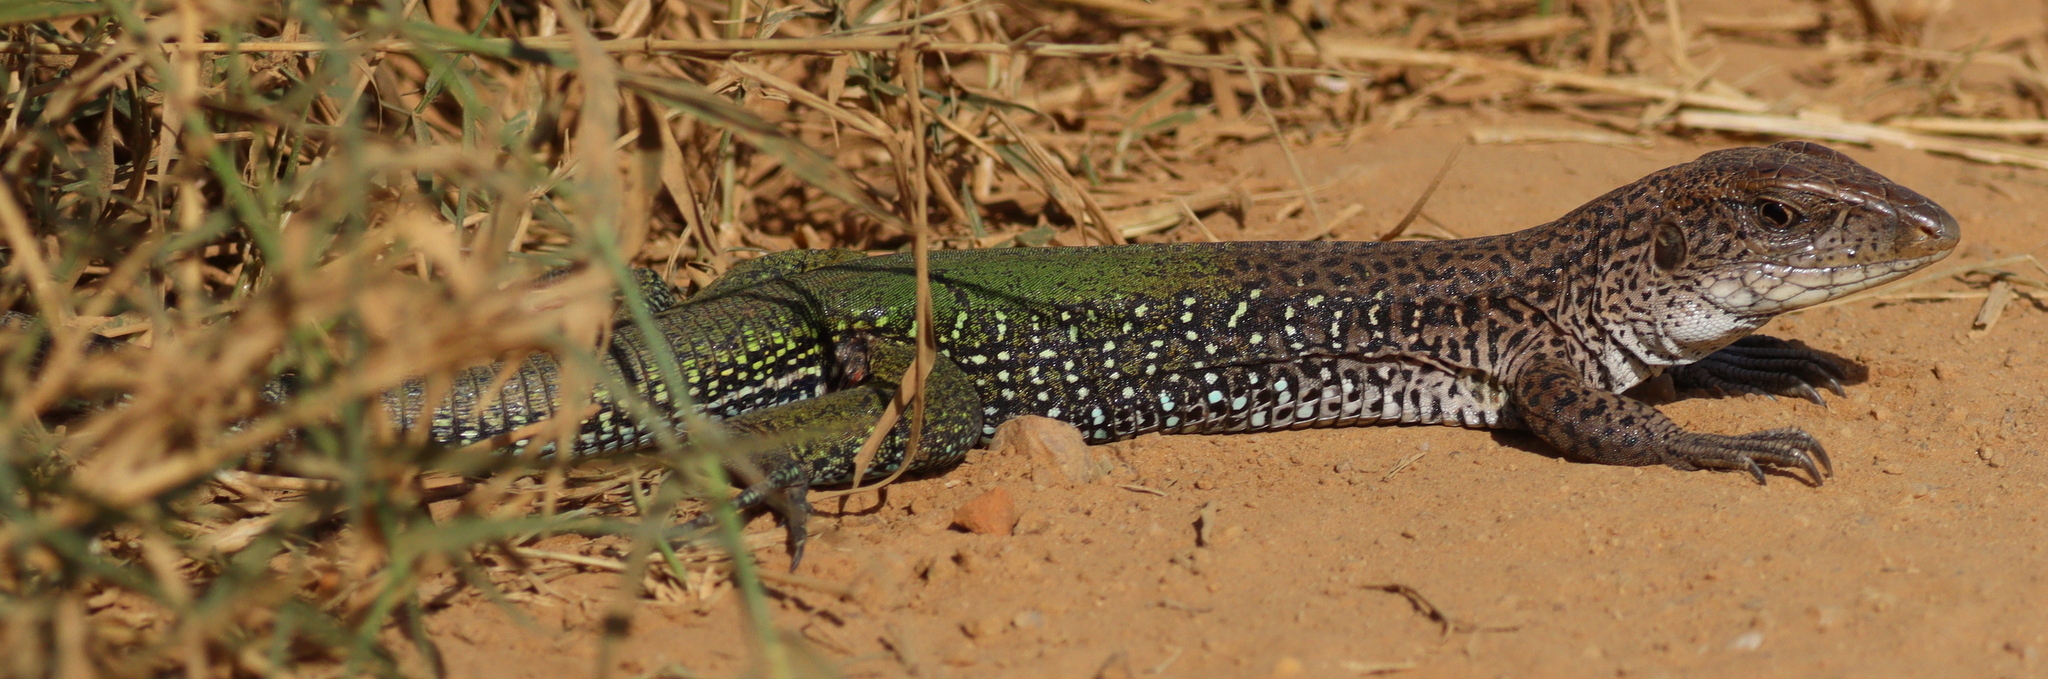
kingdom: Animalia
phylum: Chordata
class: Squamata
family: Teiidae
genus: Ameiva
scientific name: Ameiva ameiva
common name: Giant ameiva
